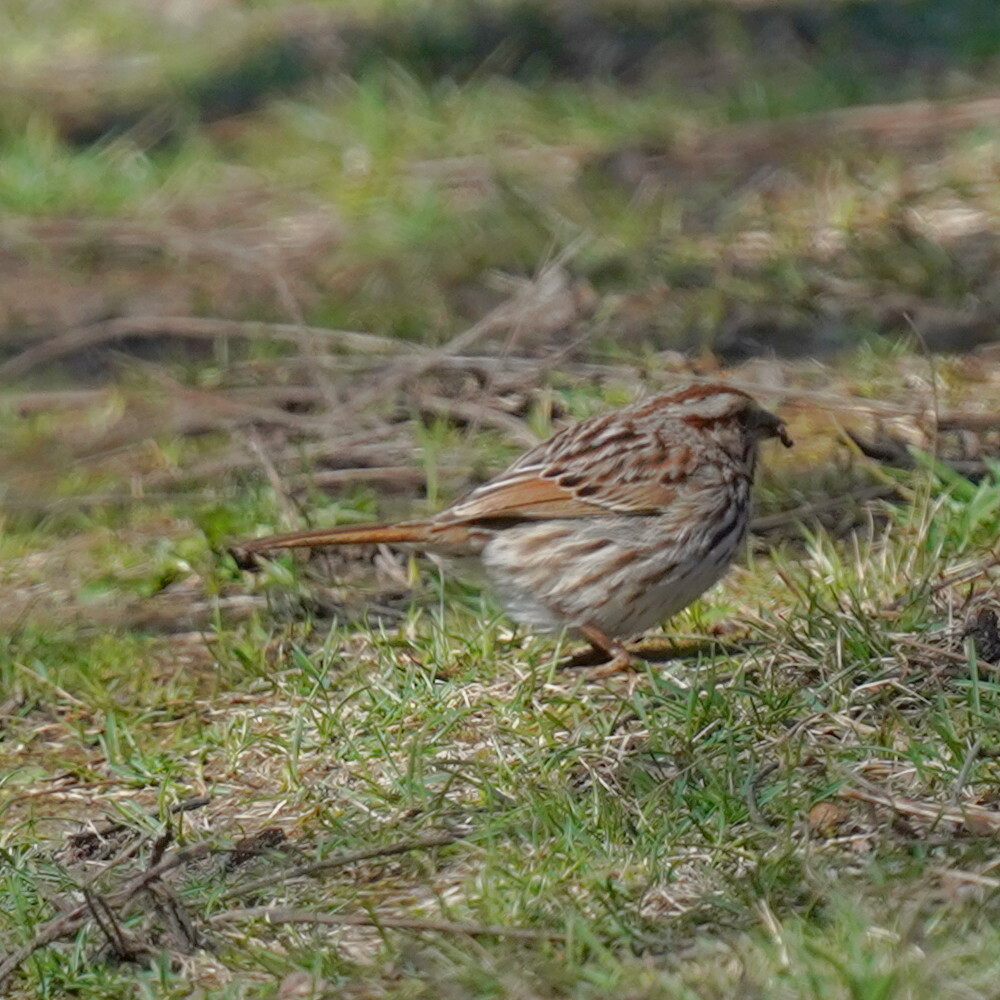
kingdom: Animalia
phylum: Chordata
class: Aves
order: Passeriformes
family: Passerellidae
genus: Melospiza
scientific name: Melospiza melodia
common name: Song sparrow
